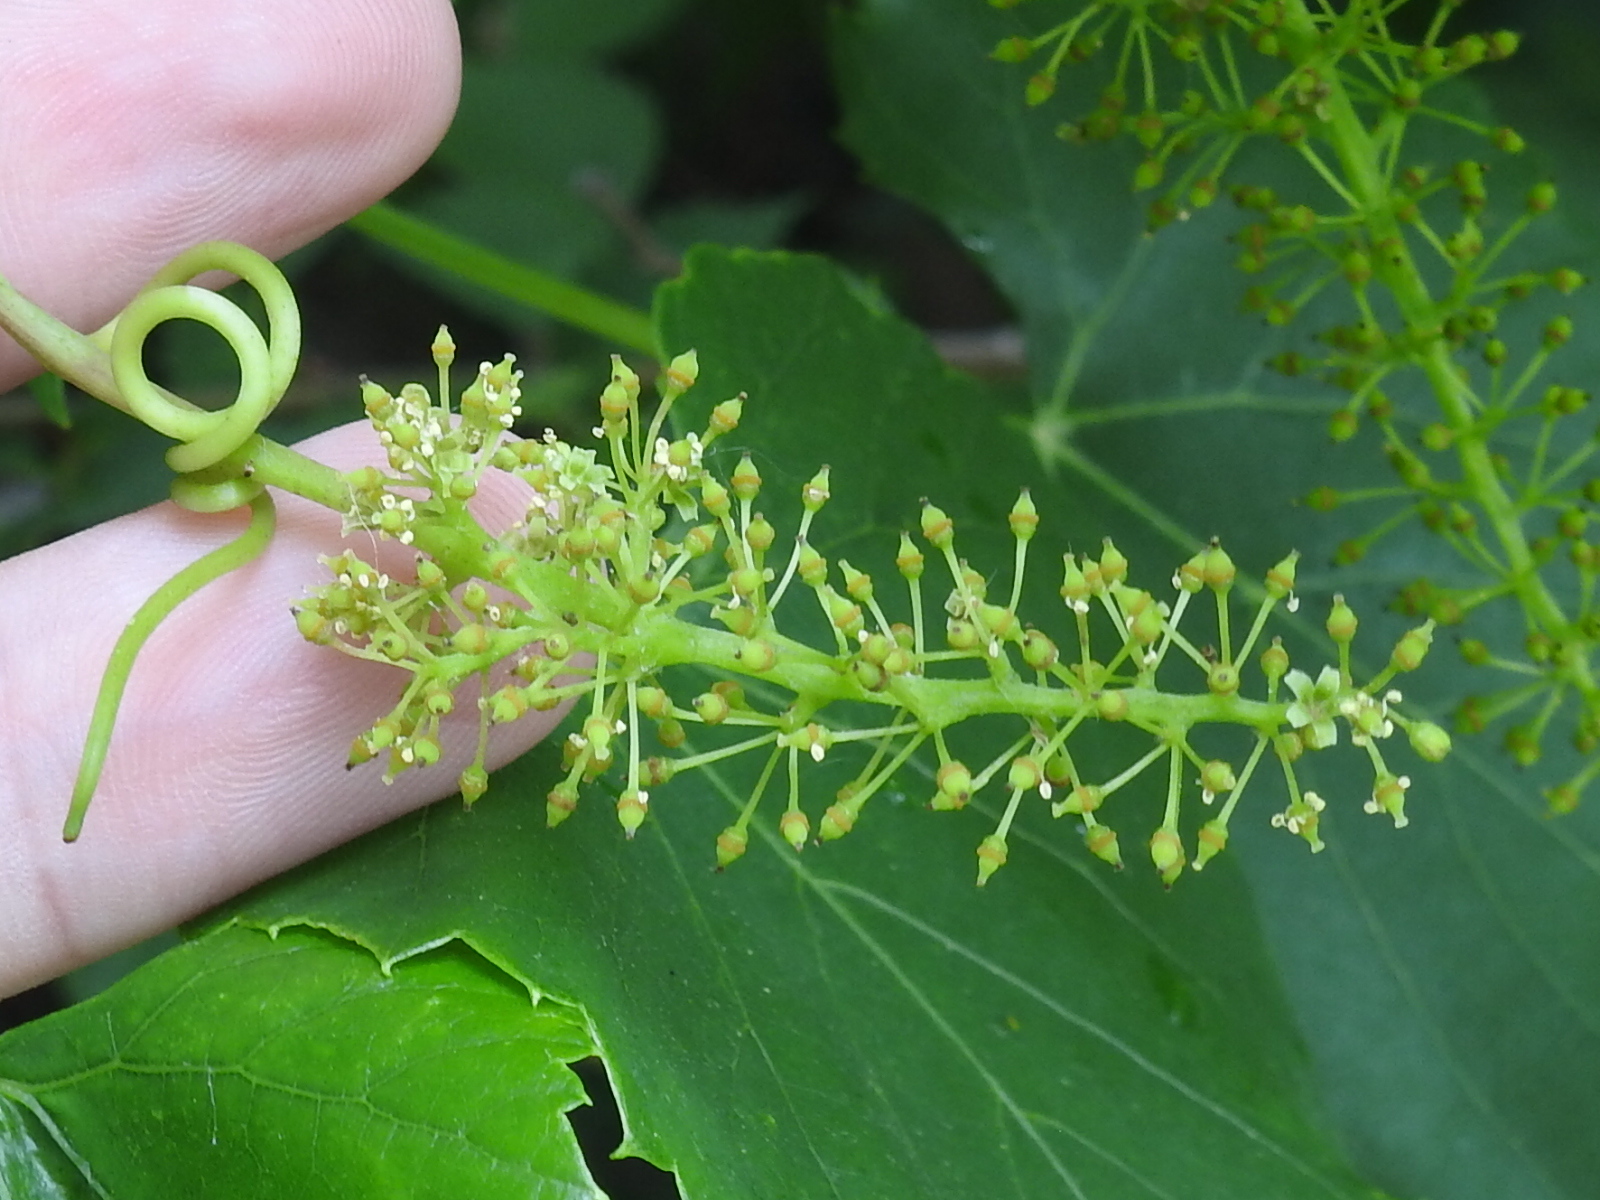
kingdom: Plantae
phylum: Tracheophyta
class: Magnoliopsida
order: Vitales
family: Vitaceae
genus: Vitis
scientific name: Vitis vulpina
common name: Frost grape
